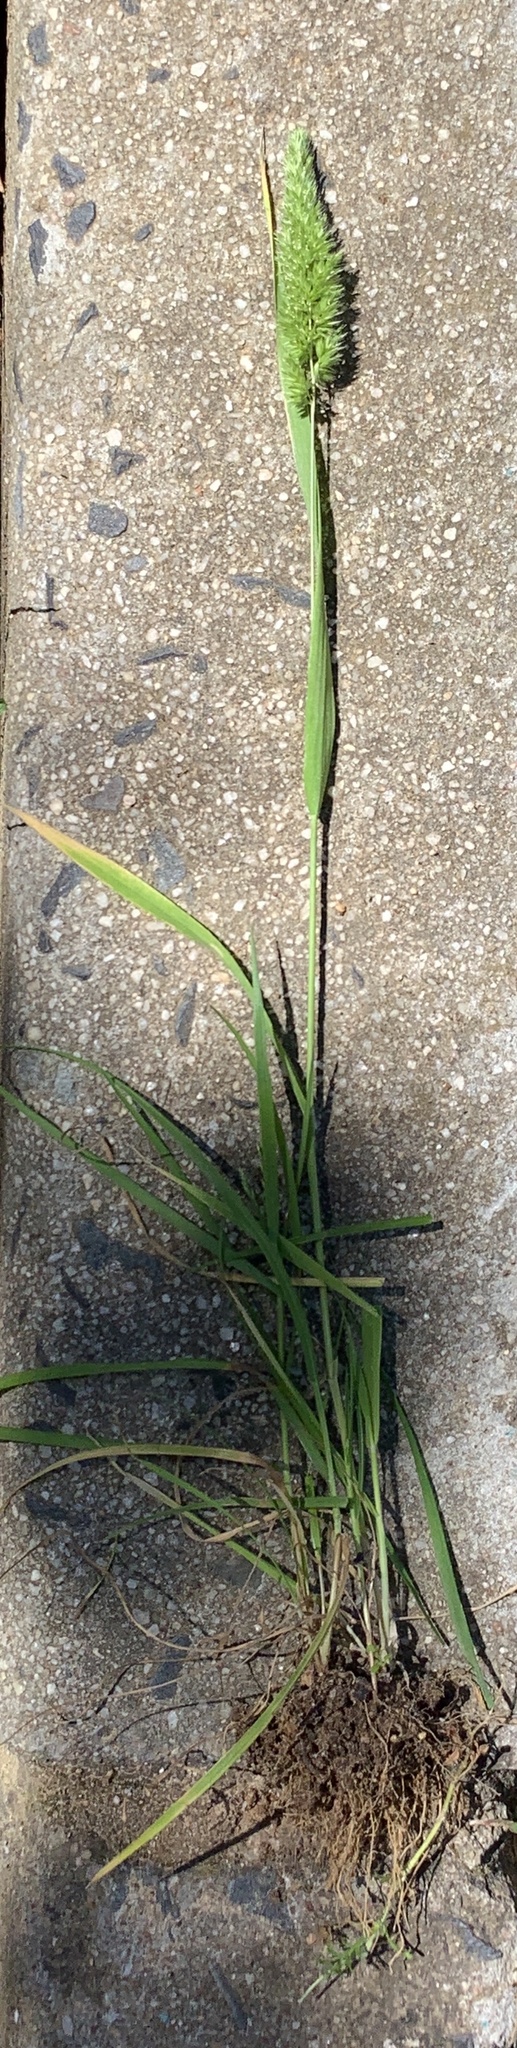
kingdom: Plantae
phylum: Tracheophyta
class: Liliopsida
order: Poales
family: Poaceae
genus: Rostraria
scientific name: Rostraria cristata
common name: Mediterranean hair-grass
